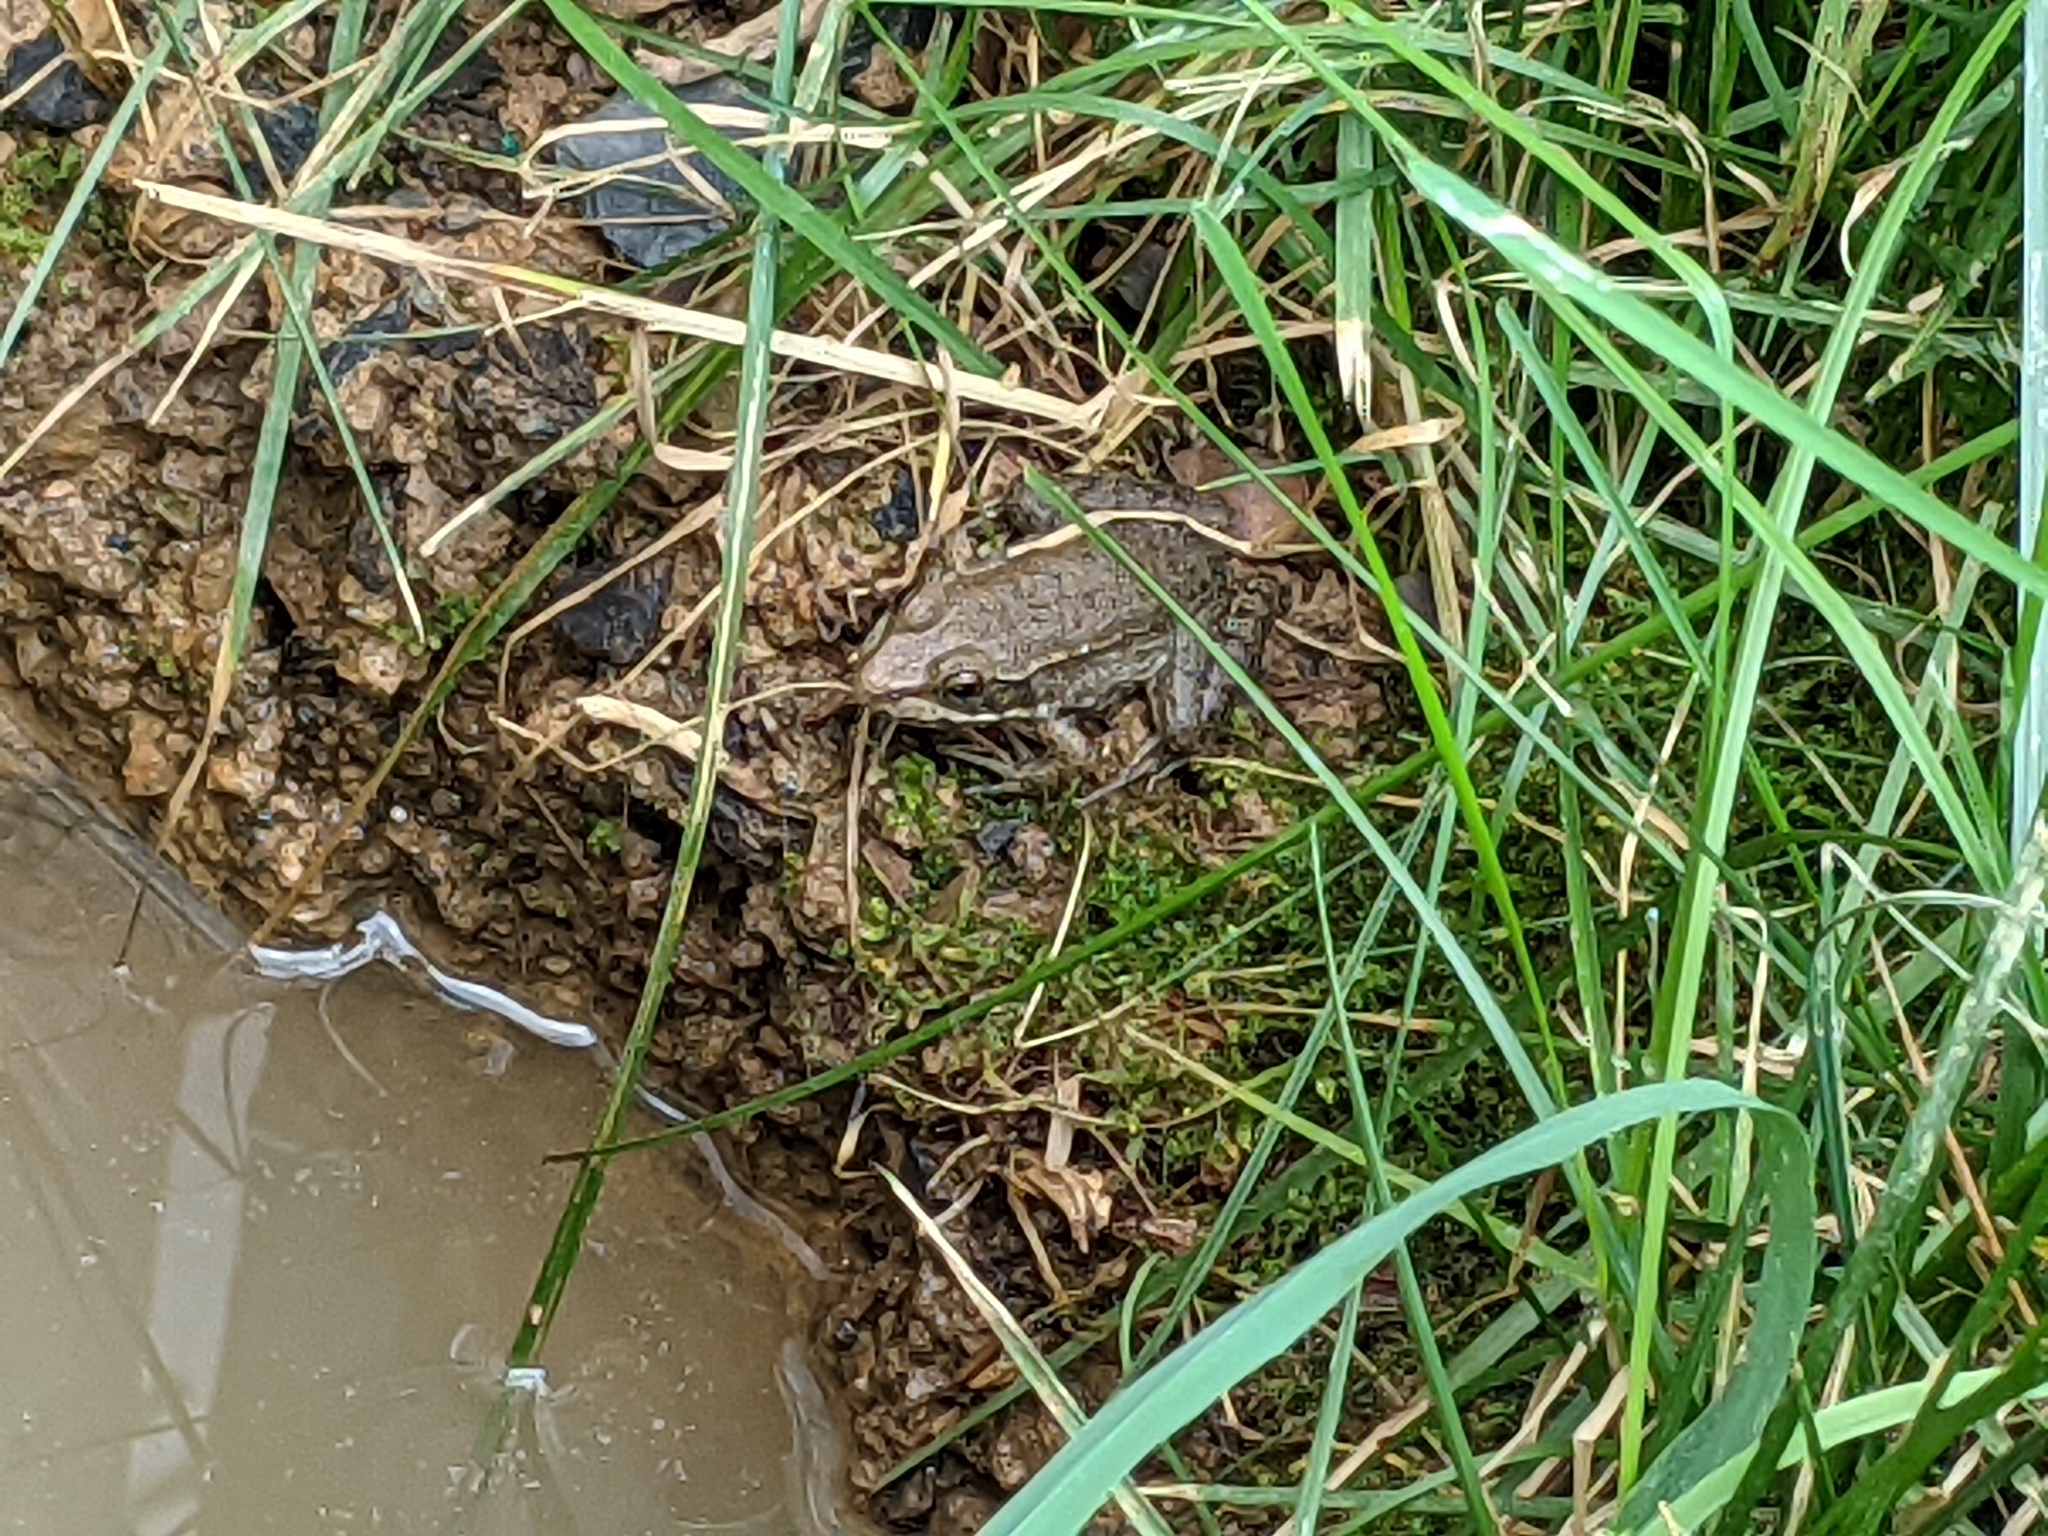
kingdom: Animalia
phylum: Chordata
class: Amphibia
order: Anura
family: Ranidae
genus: Lithobates
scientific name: Lithobates clamitans
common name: Green frog
